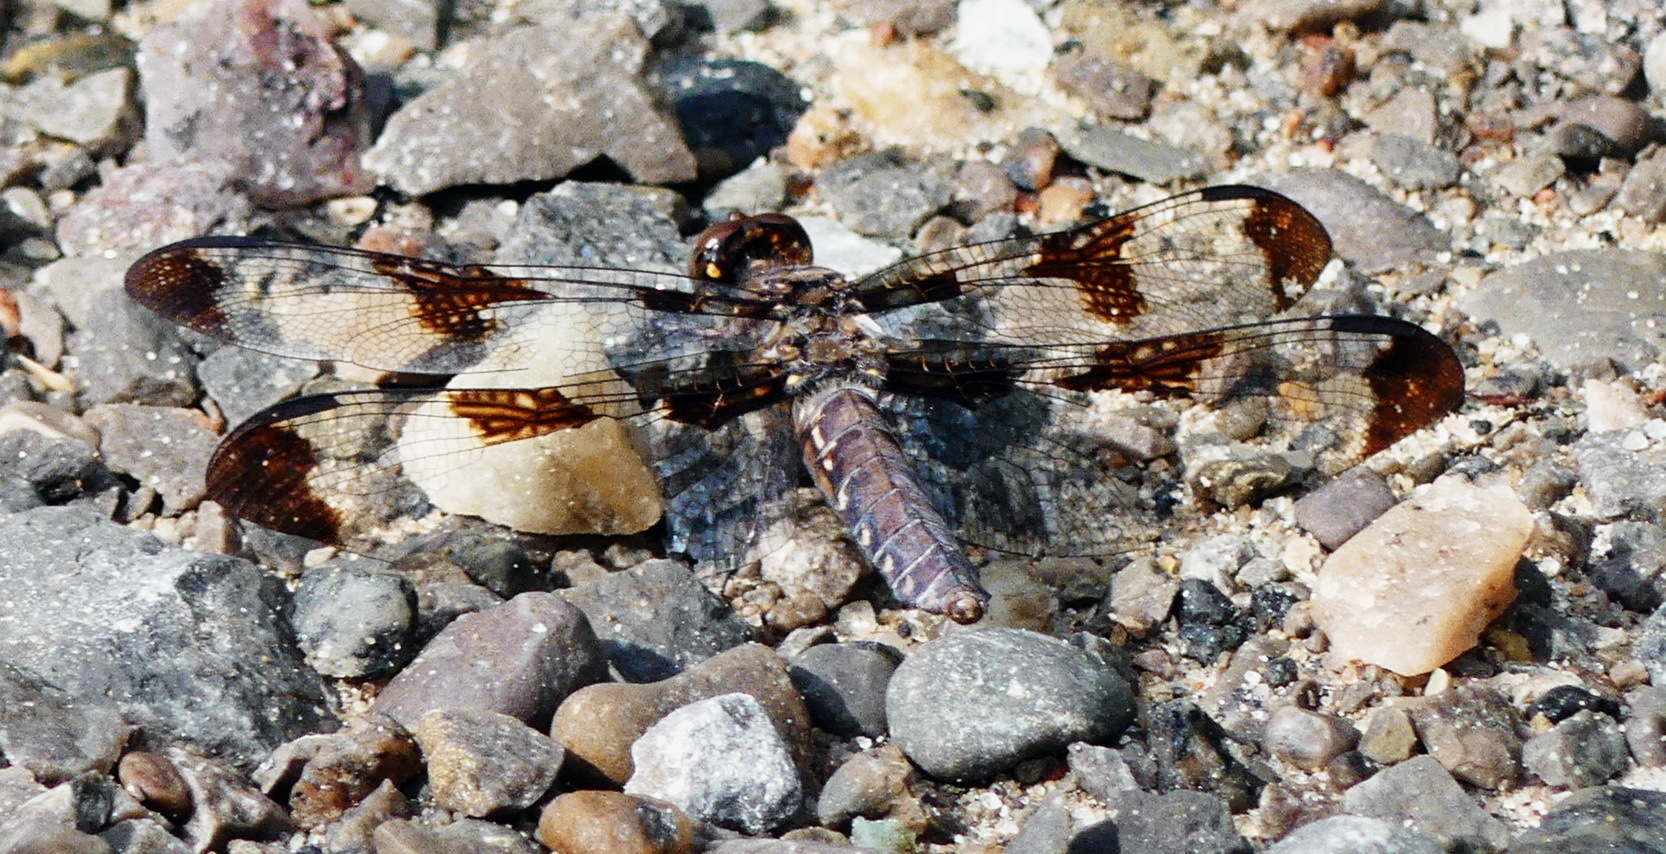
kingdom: Animalia
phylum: Arthropoda
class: Insecta
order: Odonata
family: Libellulidae
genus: Plathemis
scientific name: Plathemis lydia
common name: Common whitetail
